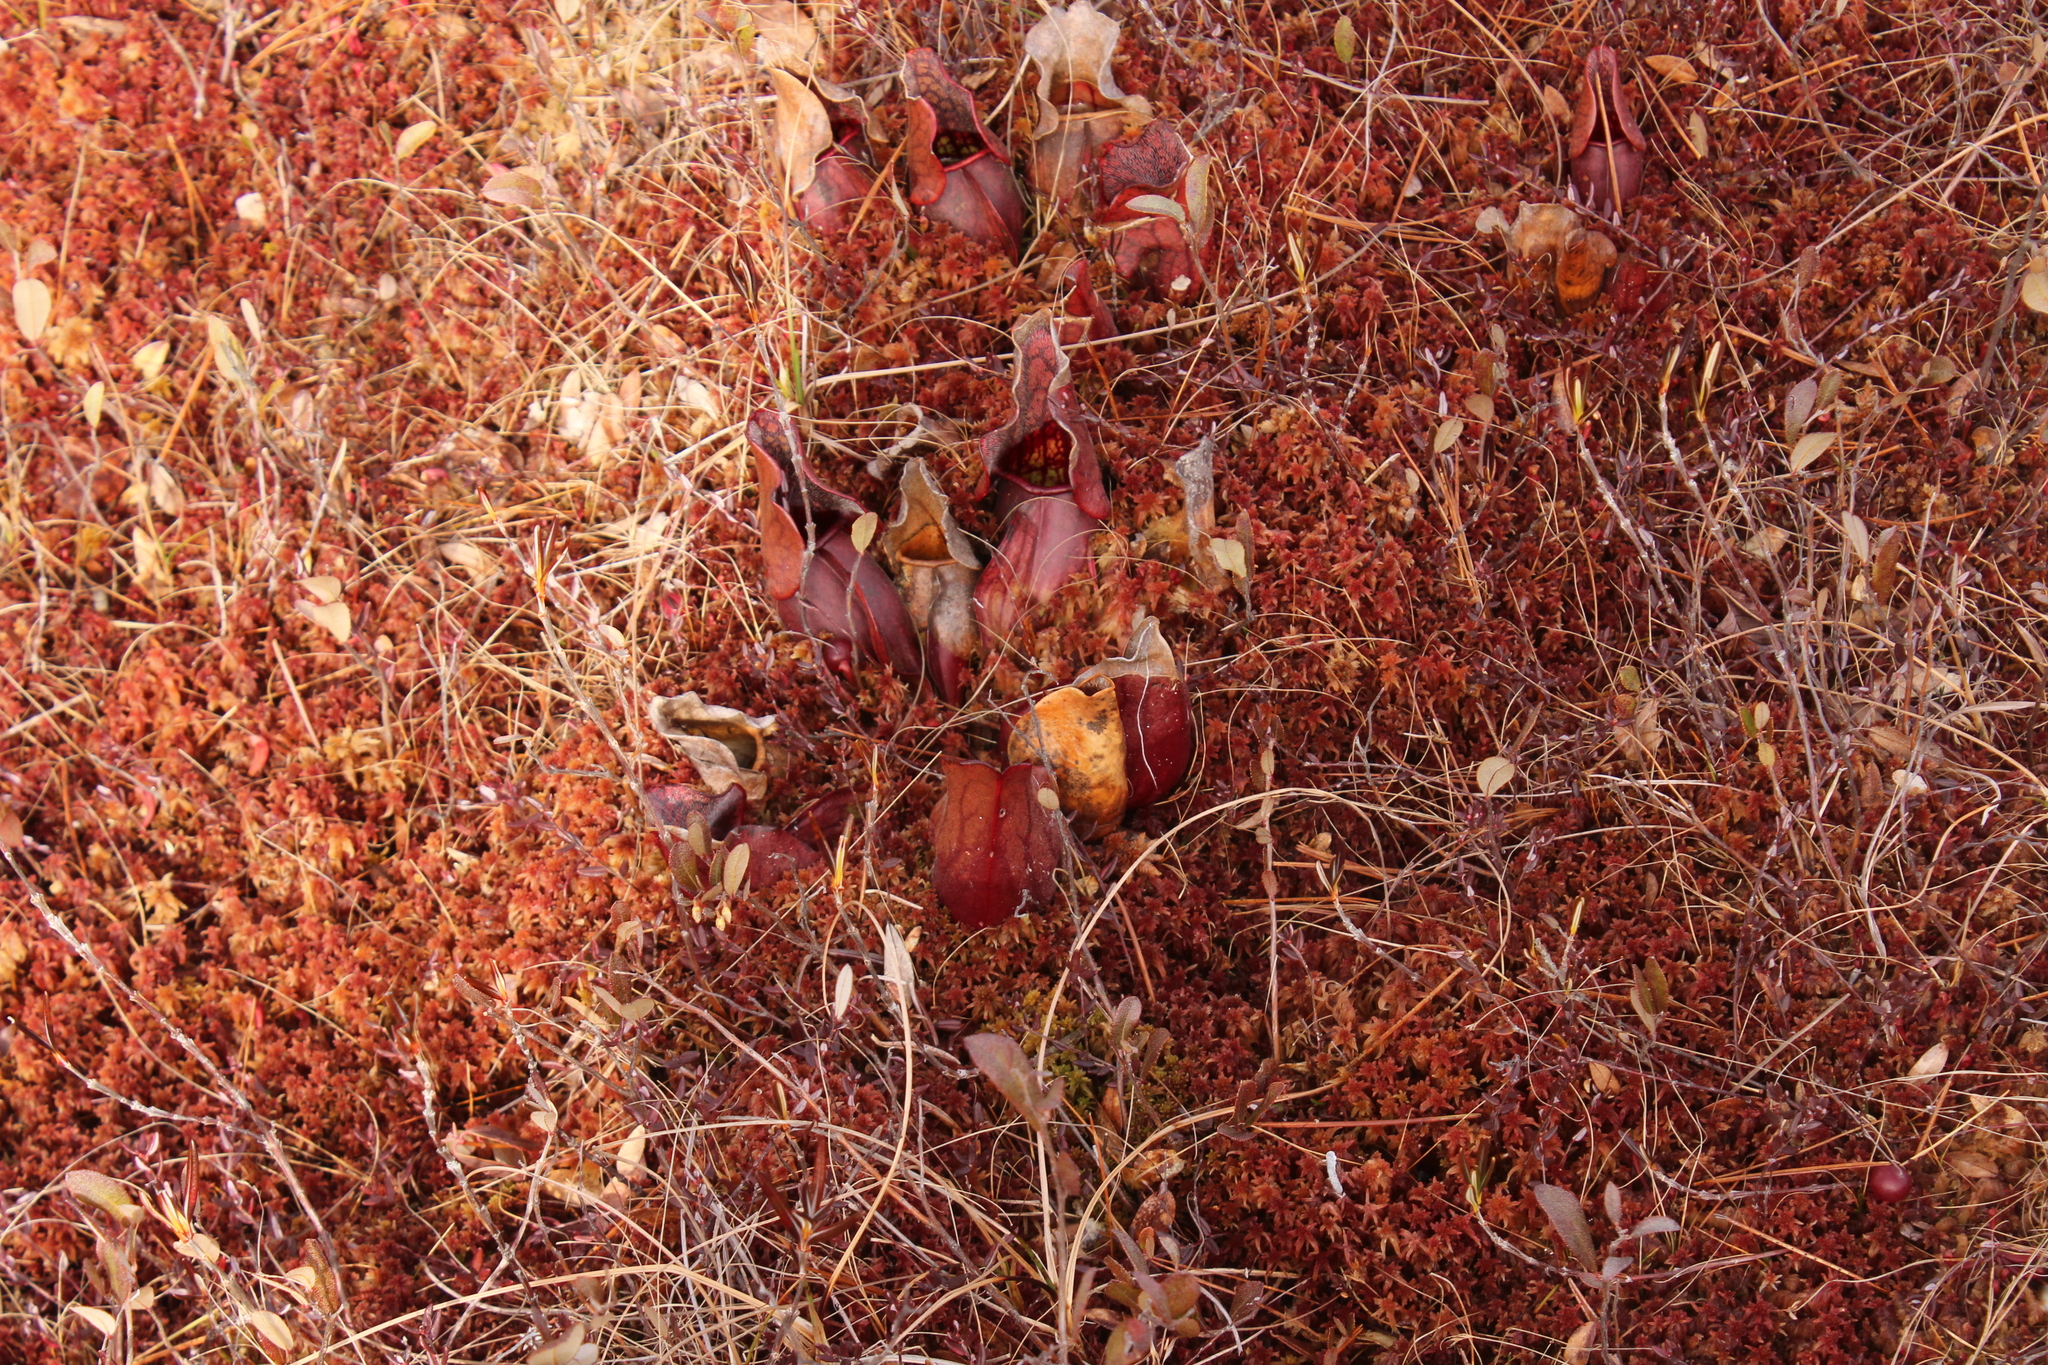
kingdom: Plantae
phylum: Tracheophyta
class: Magnoliopsida
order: Ericales
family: Sarraceniaceae
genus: Sarracenia
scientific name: Sarracenia purpurea
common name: Pitcherplant
